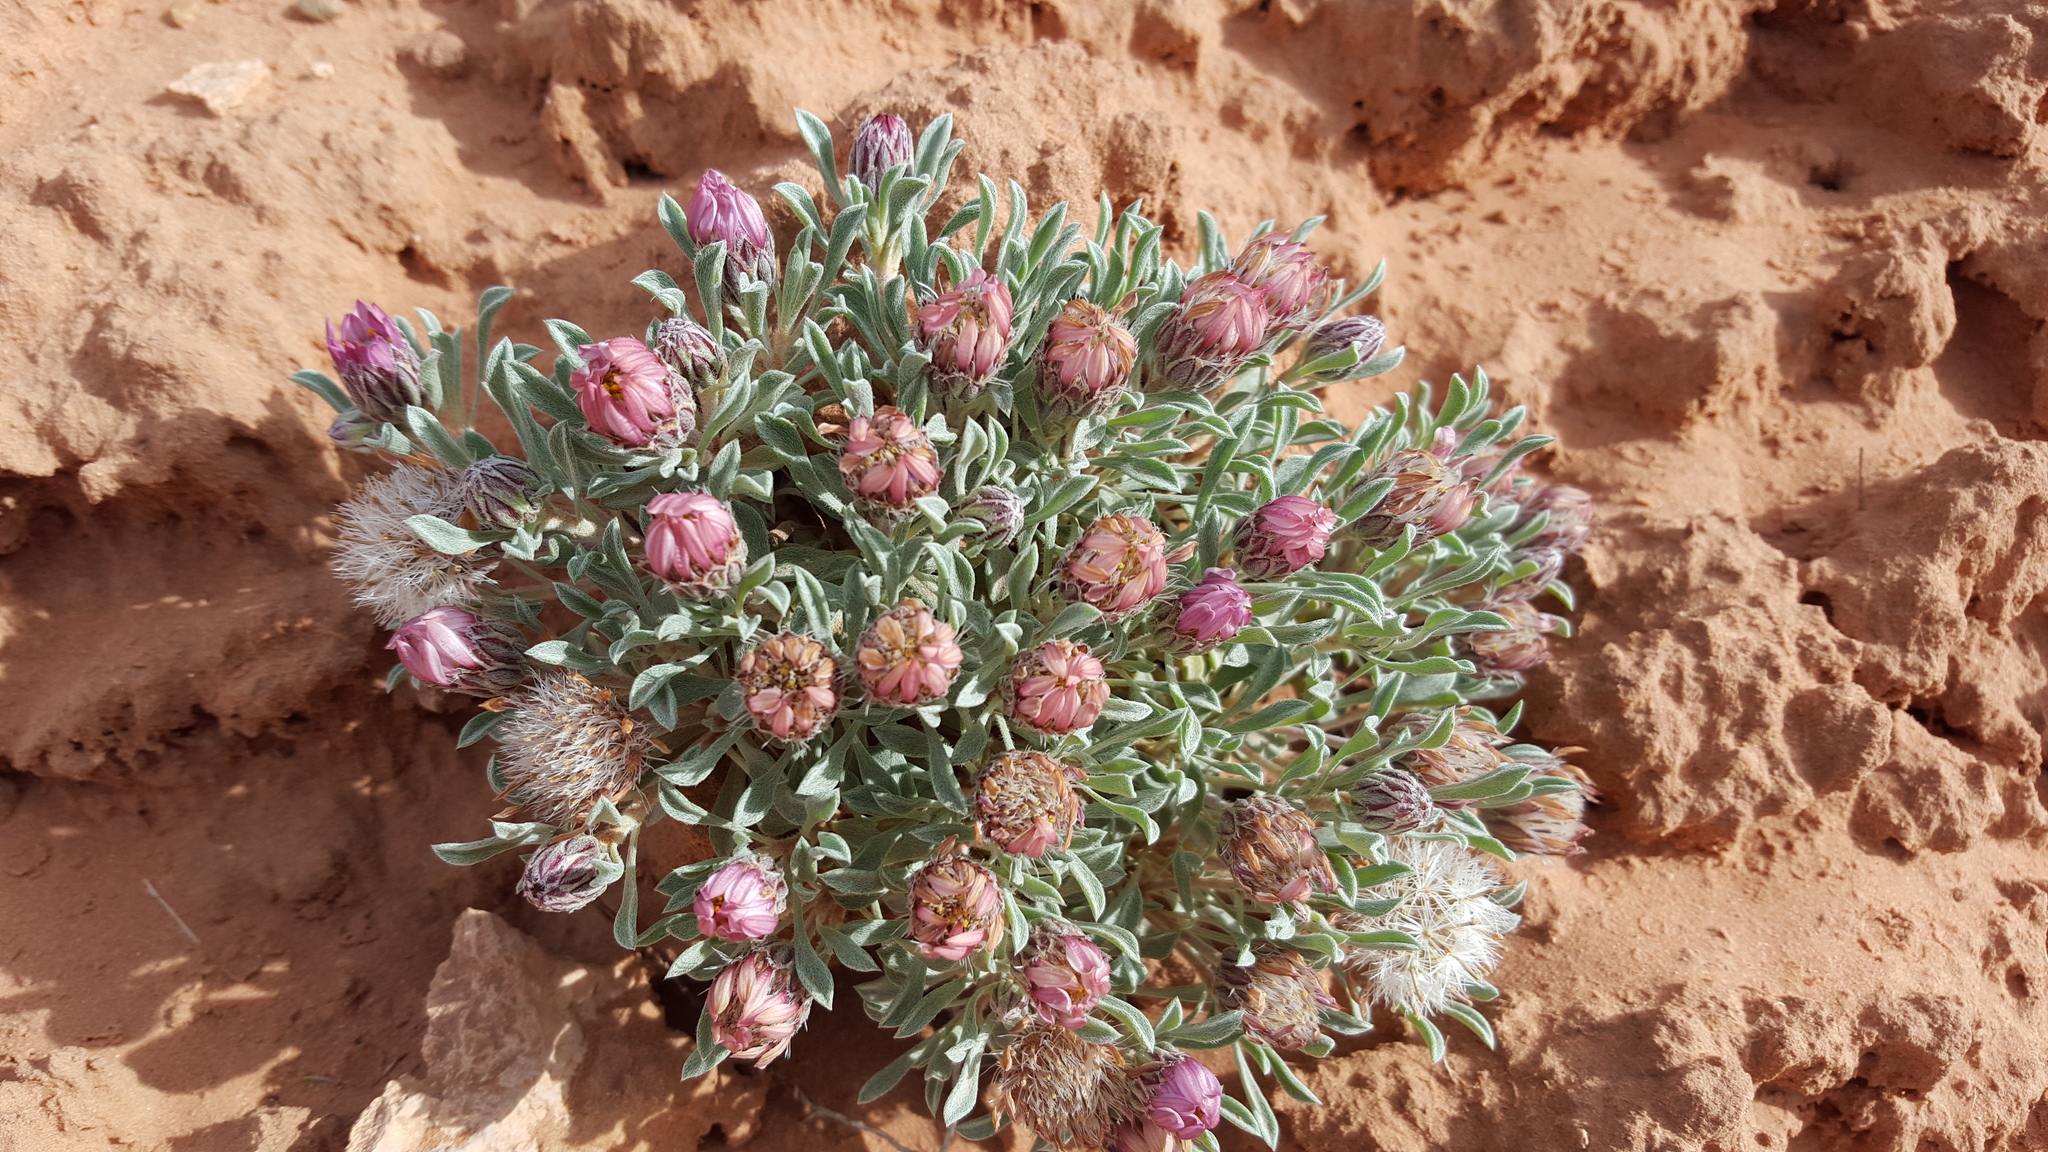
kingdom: Plantae
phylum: Tracheophyta
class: Magnoliopsida
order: Asterales
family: Asteraceae
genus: Townsendia
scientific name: Townsendia incana
